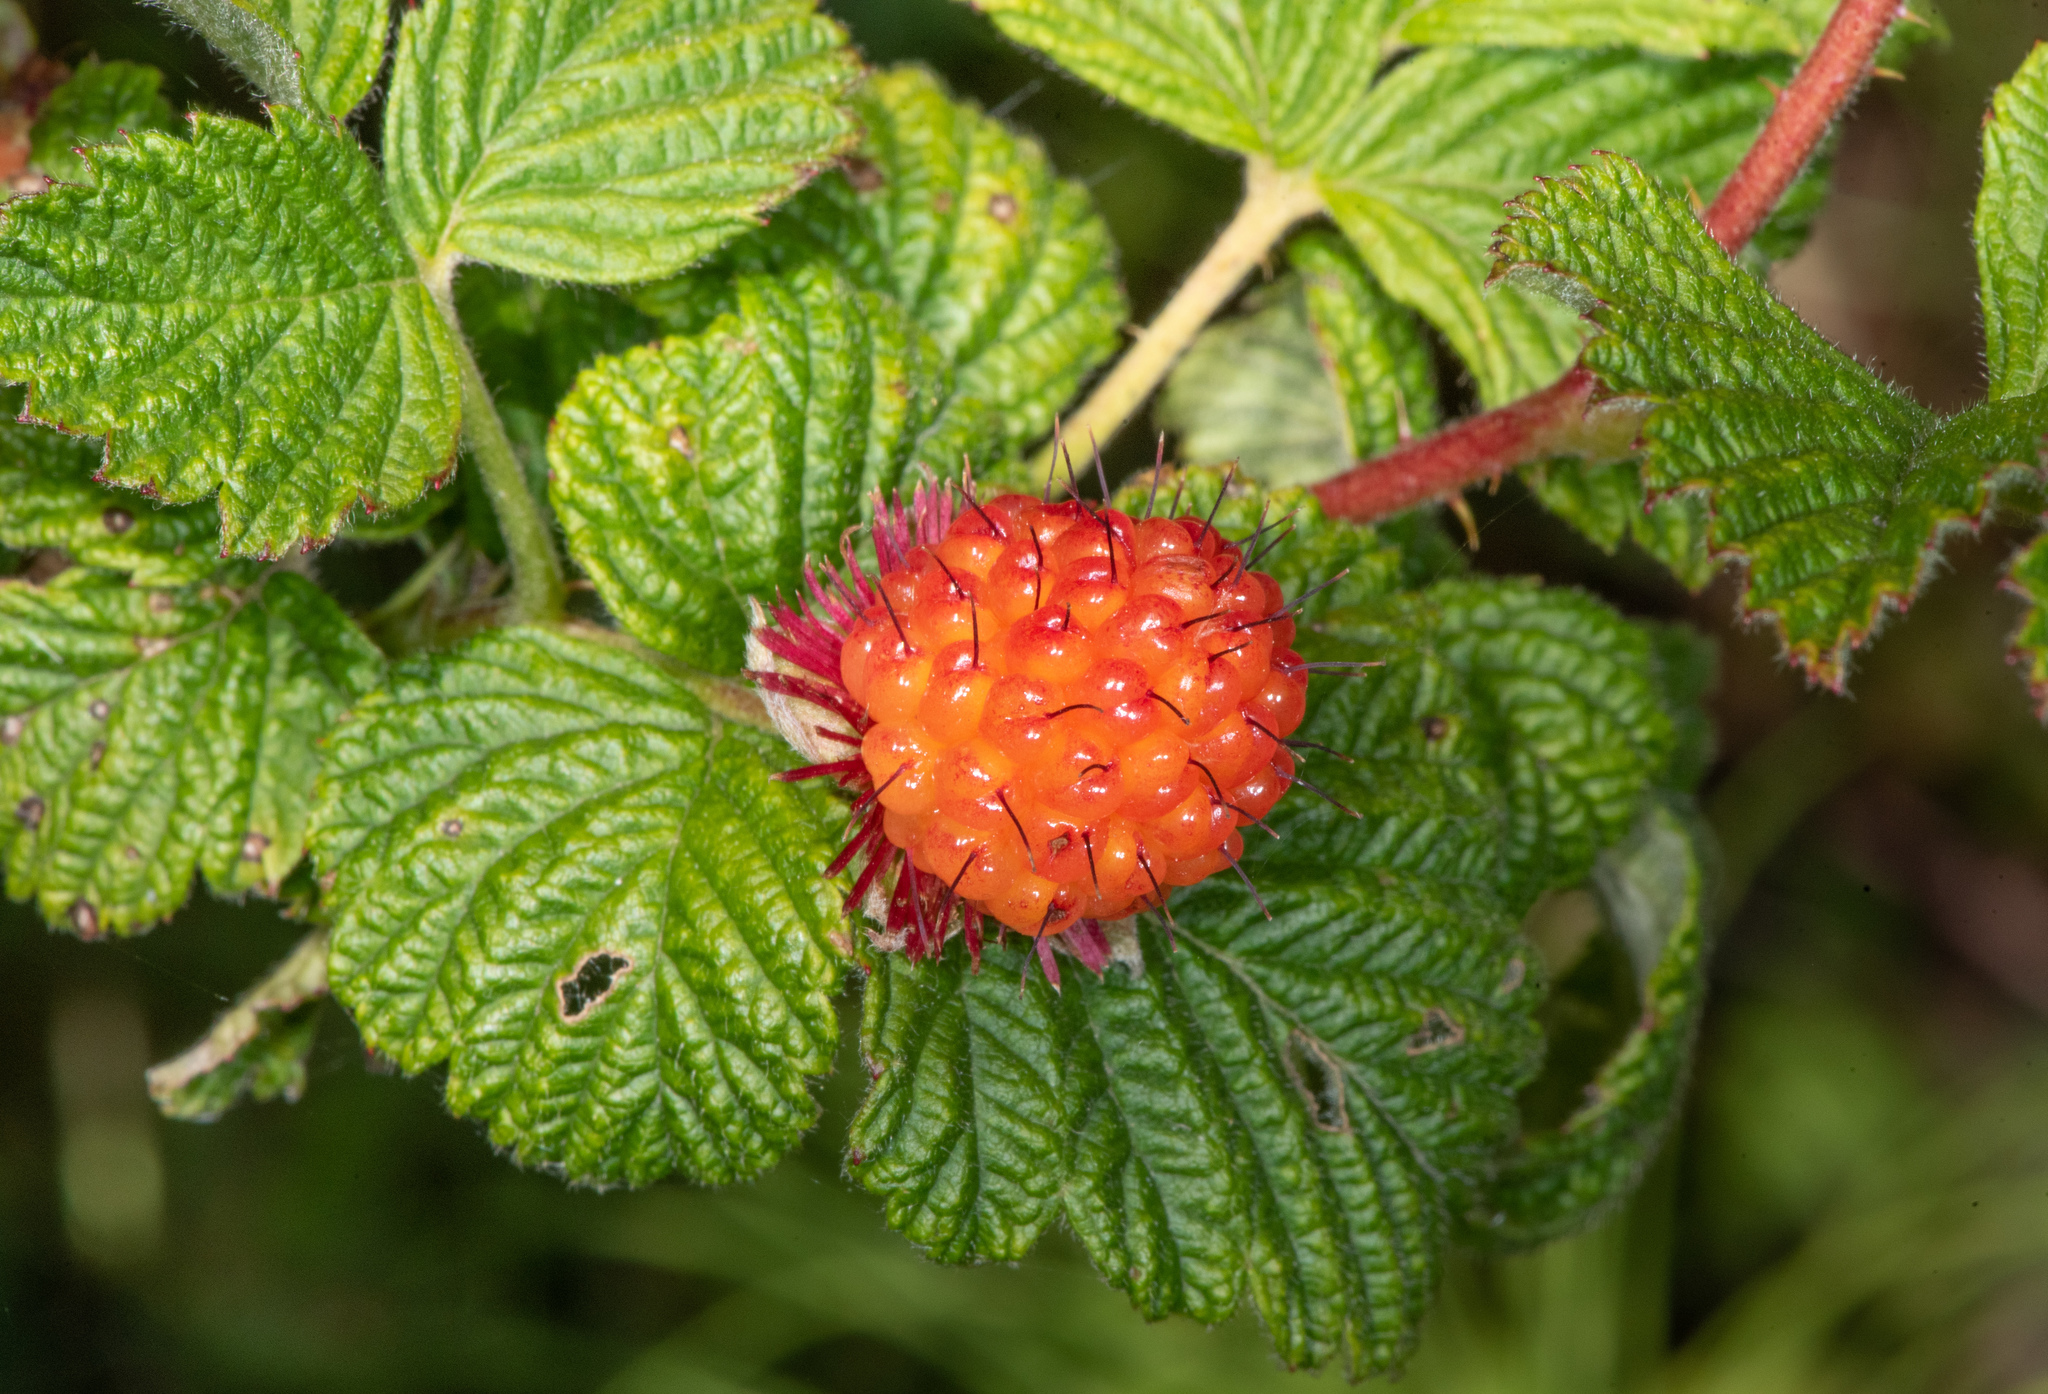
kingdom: Plantae
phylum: Tracheophyta
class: Magnoliopsida
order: Rosales
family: Rosaceae
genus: Rubus
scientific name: Rubus spectabilis
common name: Salmonberry
